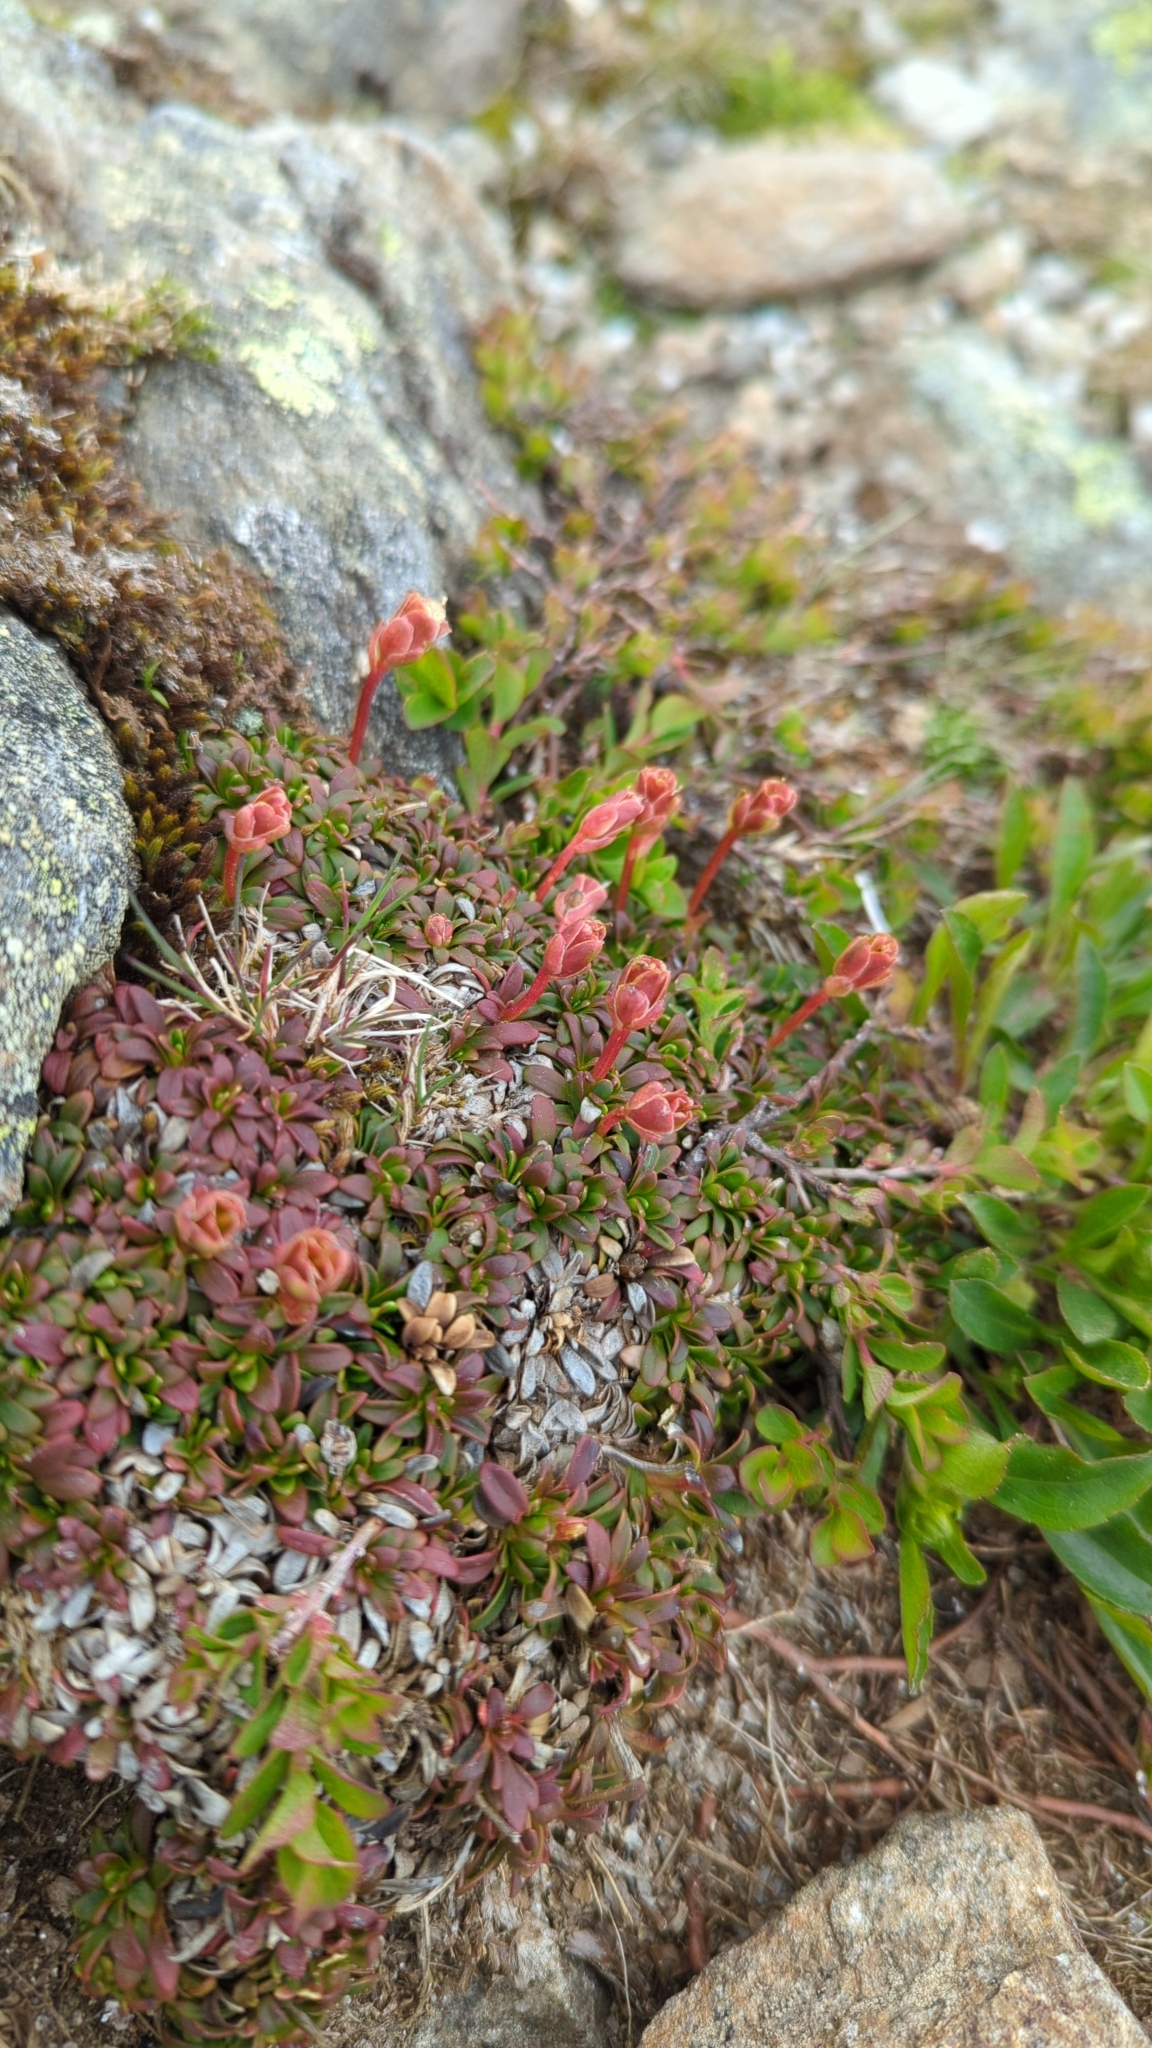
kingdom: Plantae
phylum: Tracheophyta
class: Magnoliopsida
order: Ericales
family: Diapensiaceae
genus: Diapensia
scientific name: Diapensia lapponica
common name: Diapensia
